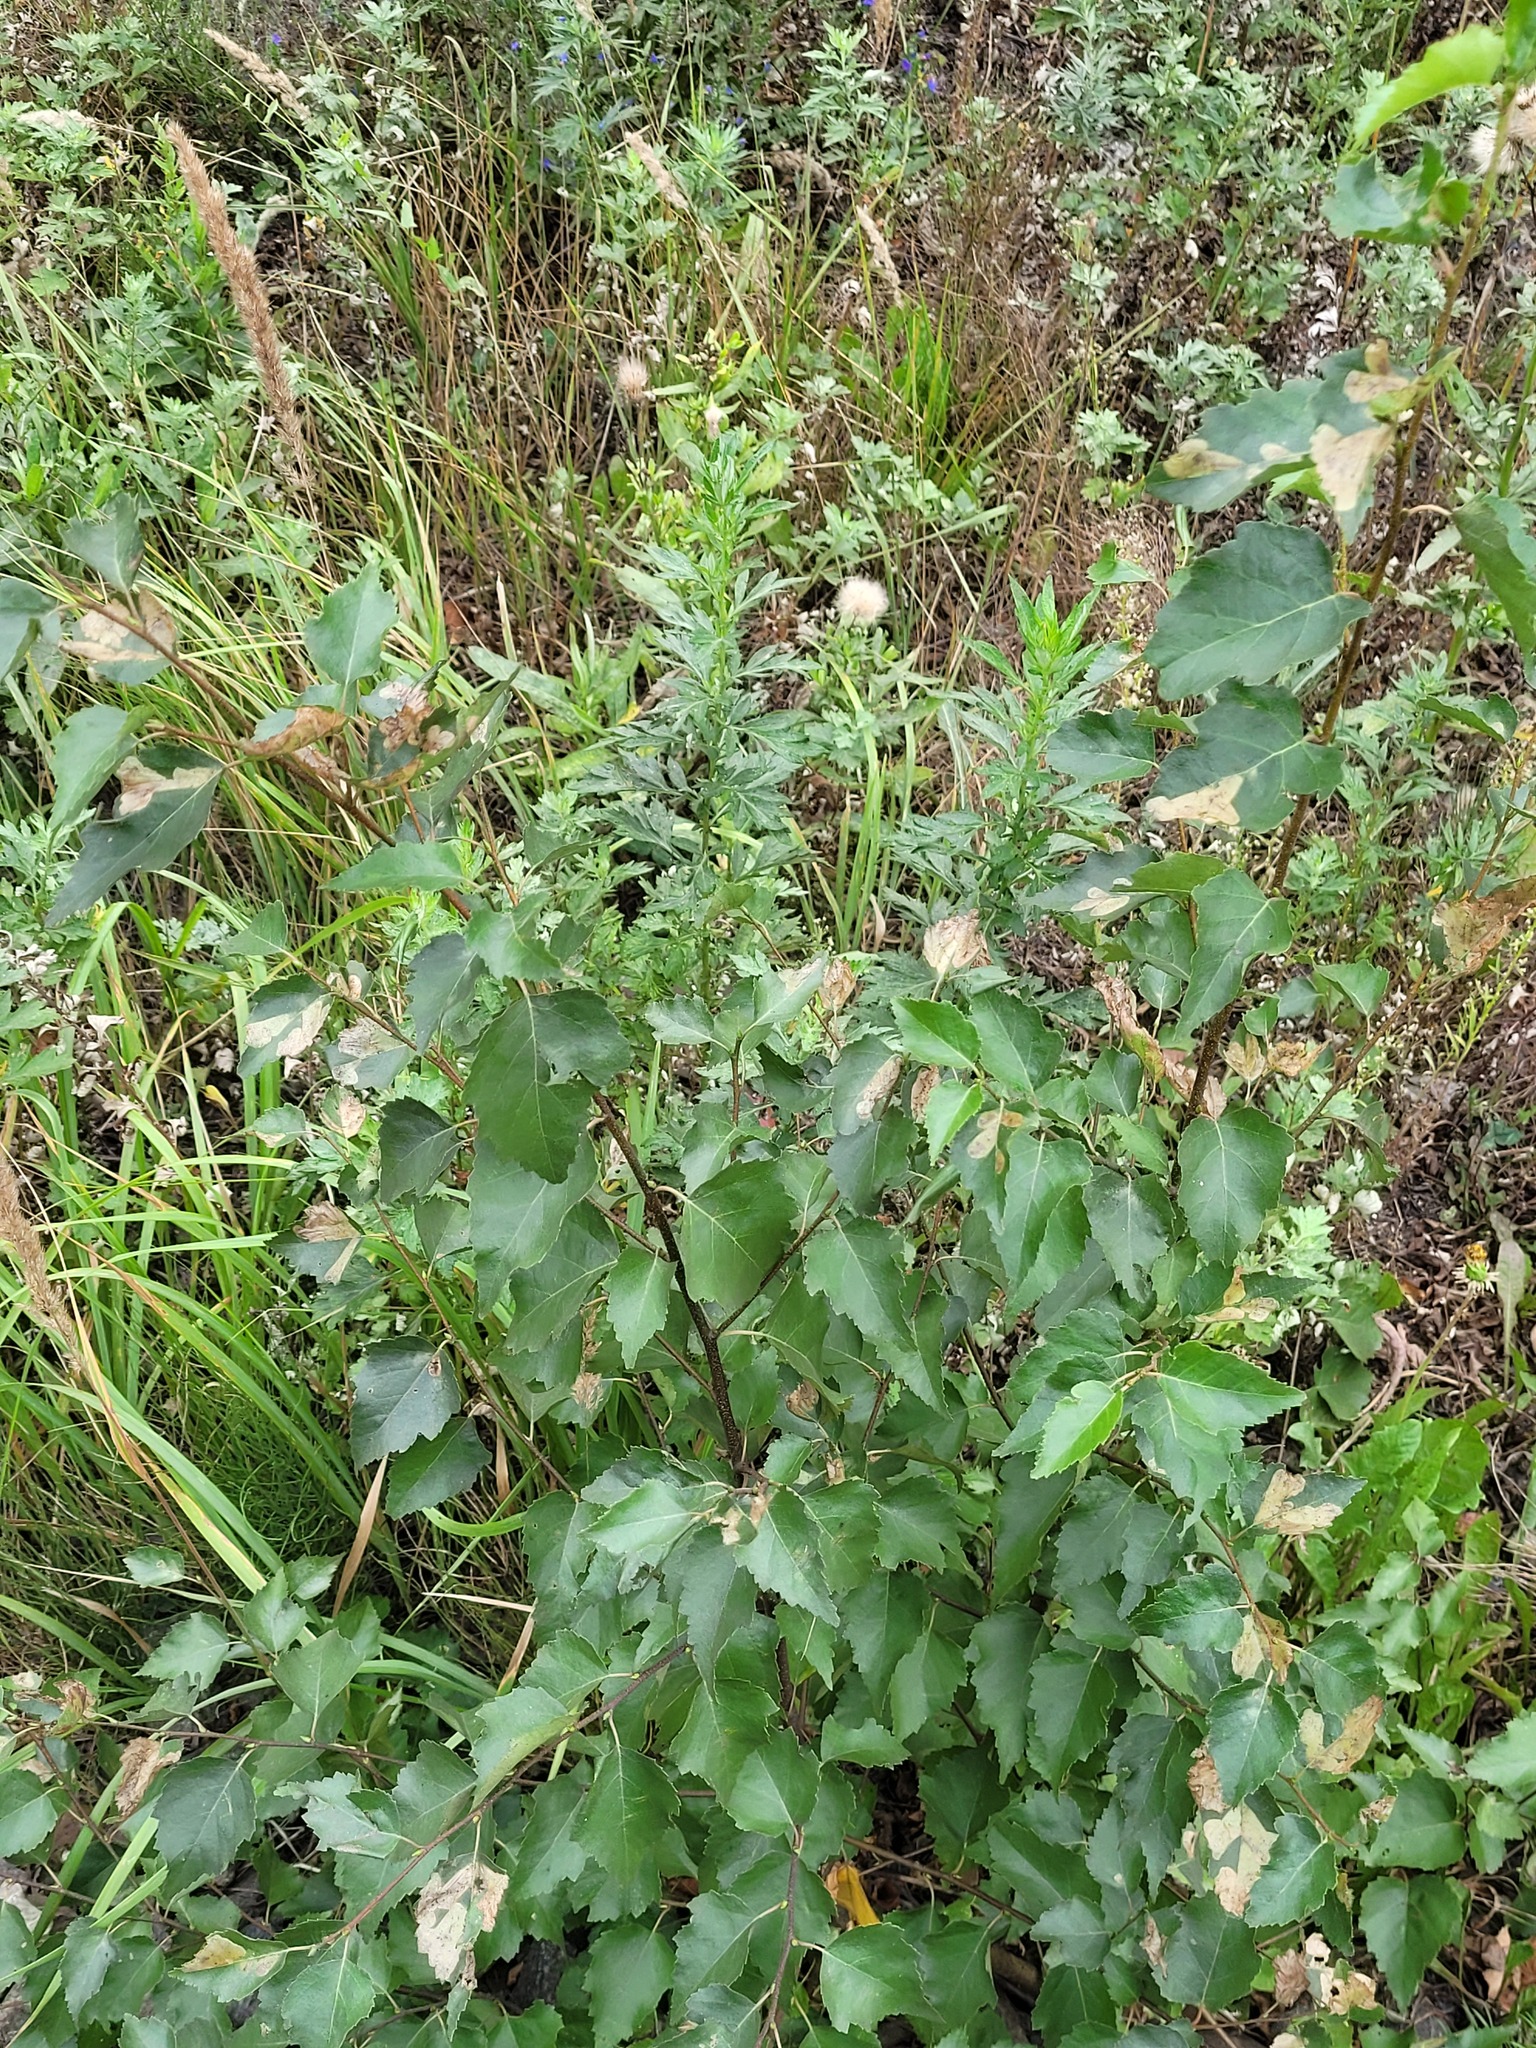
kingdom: Plantae
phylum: Tracheophyta
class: Magnoliopsida
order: Fagales
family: Betulaceae
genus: Betula
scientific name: Betula pendula
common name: Silver birch
